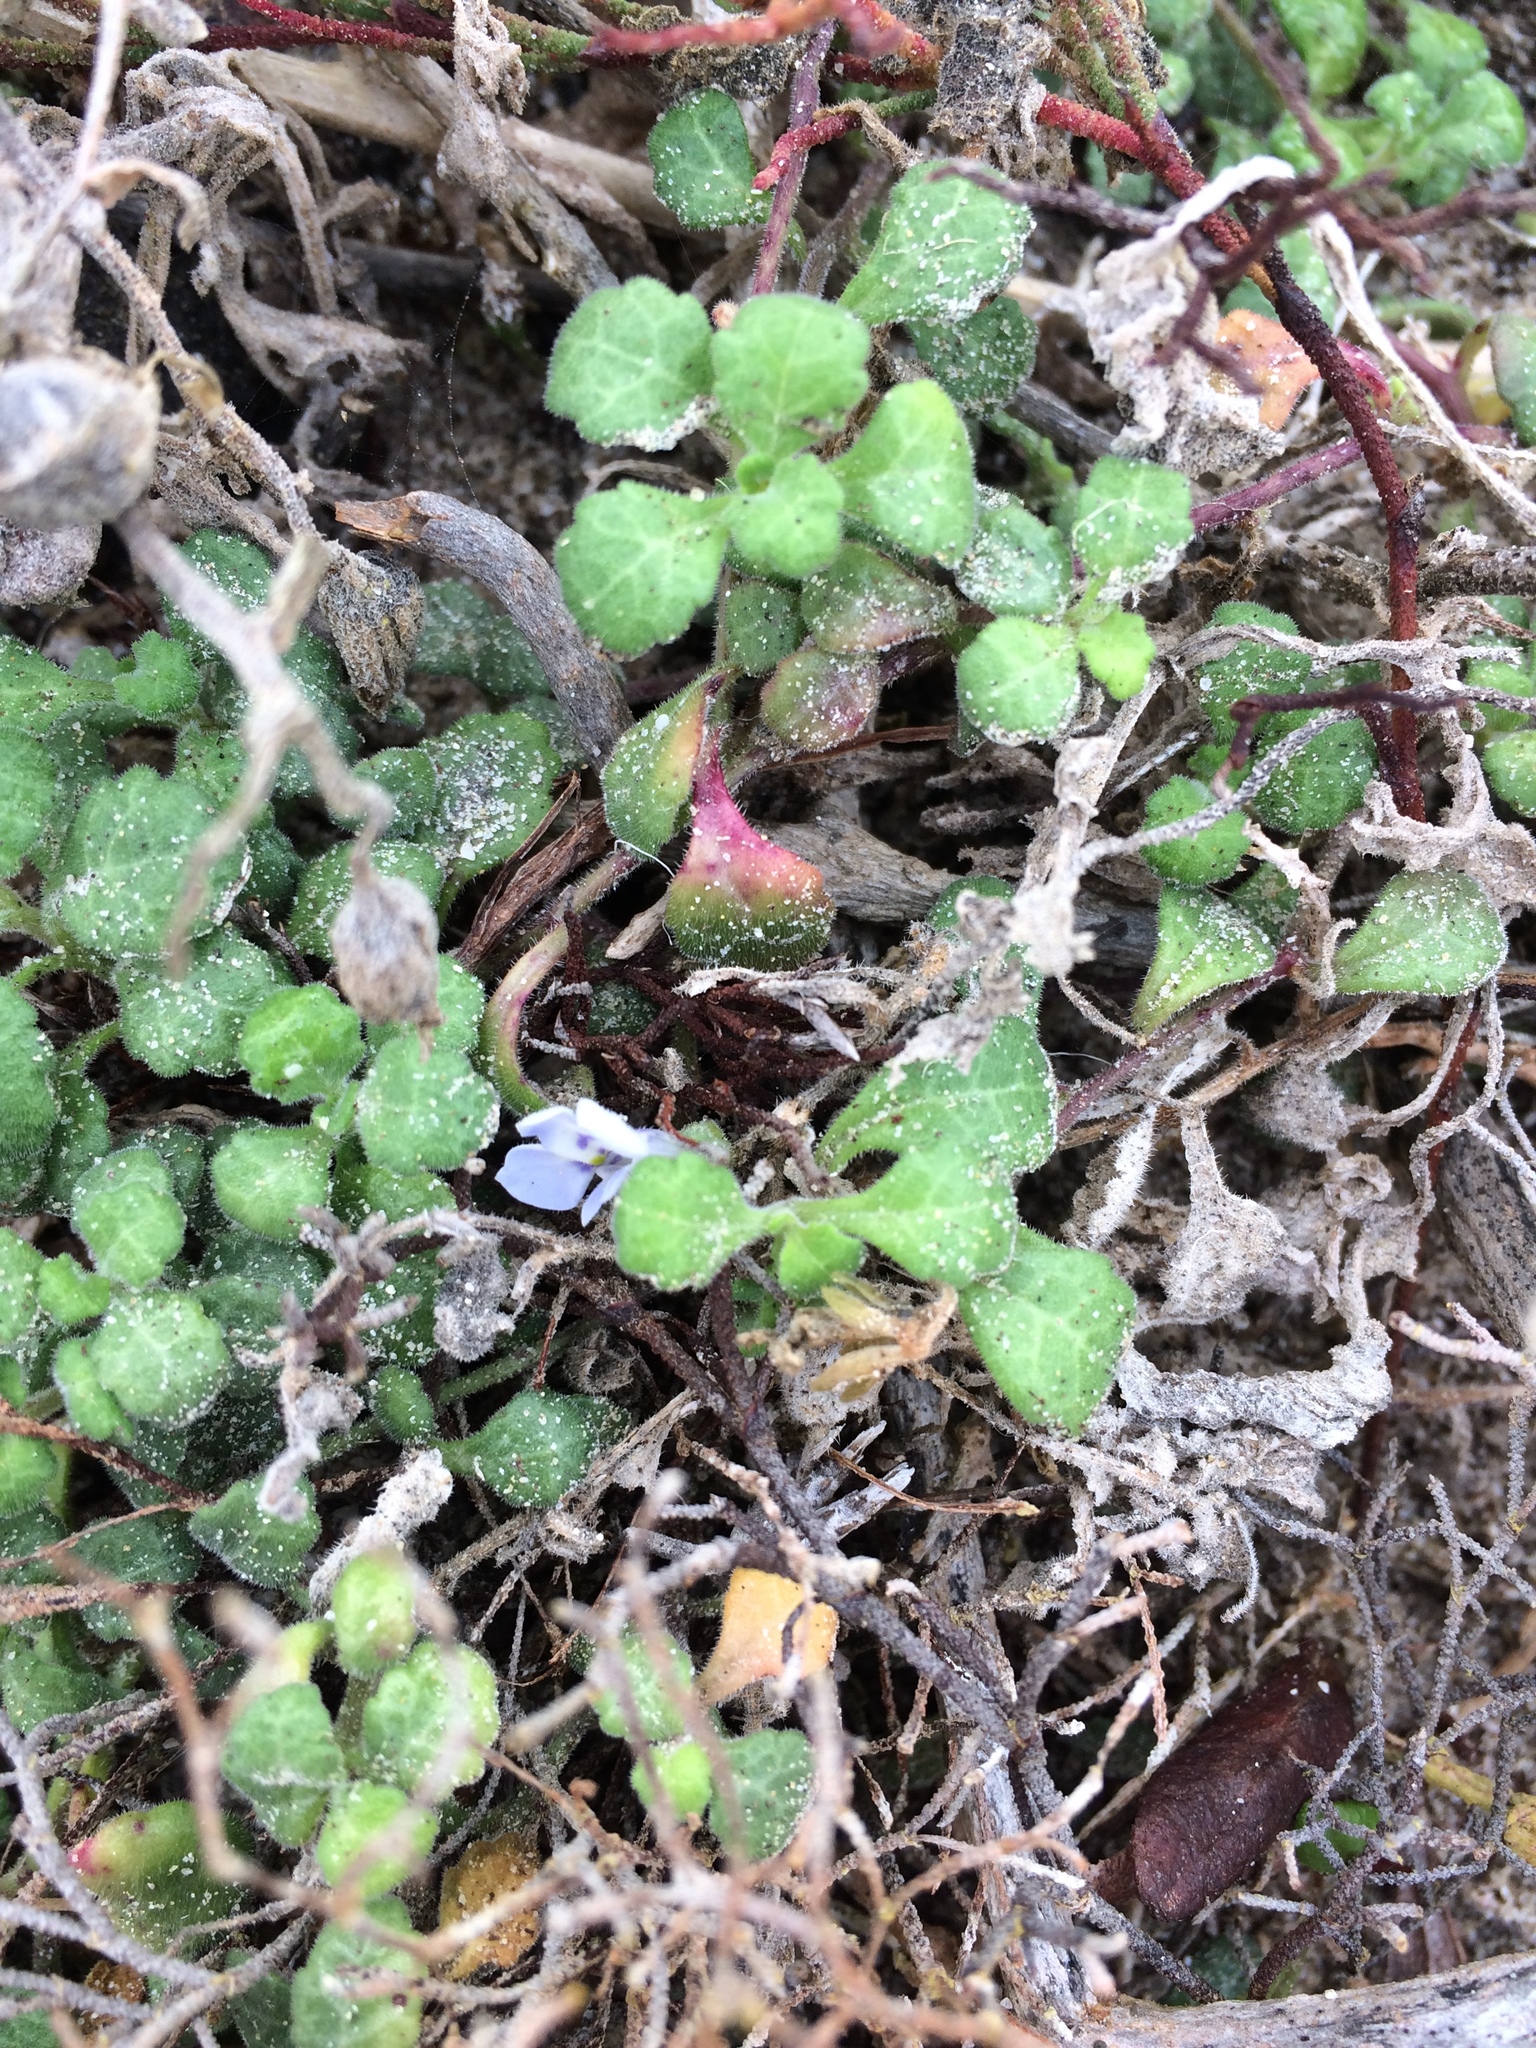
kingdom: Plantae
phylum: Tracheophyta
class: Magnoliopsida
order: Asterales
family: Campanulaceae
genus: Lobelia
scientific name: Lobelia boivinii
